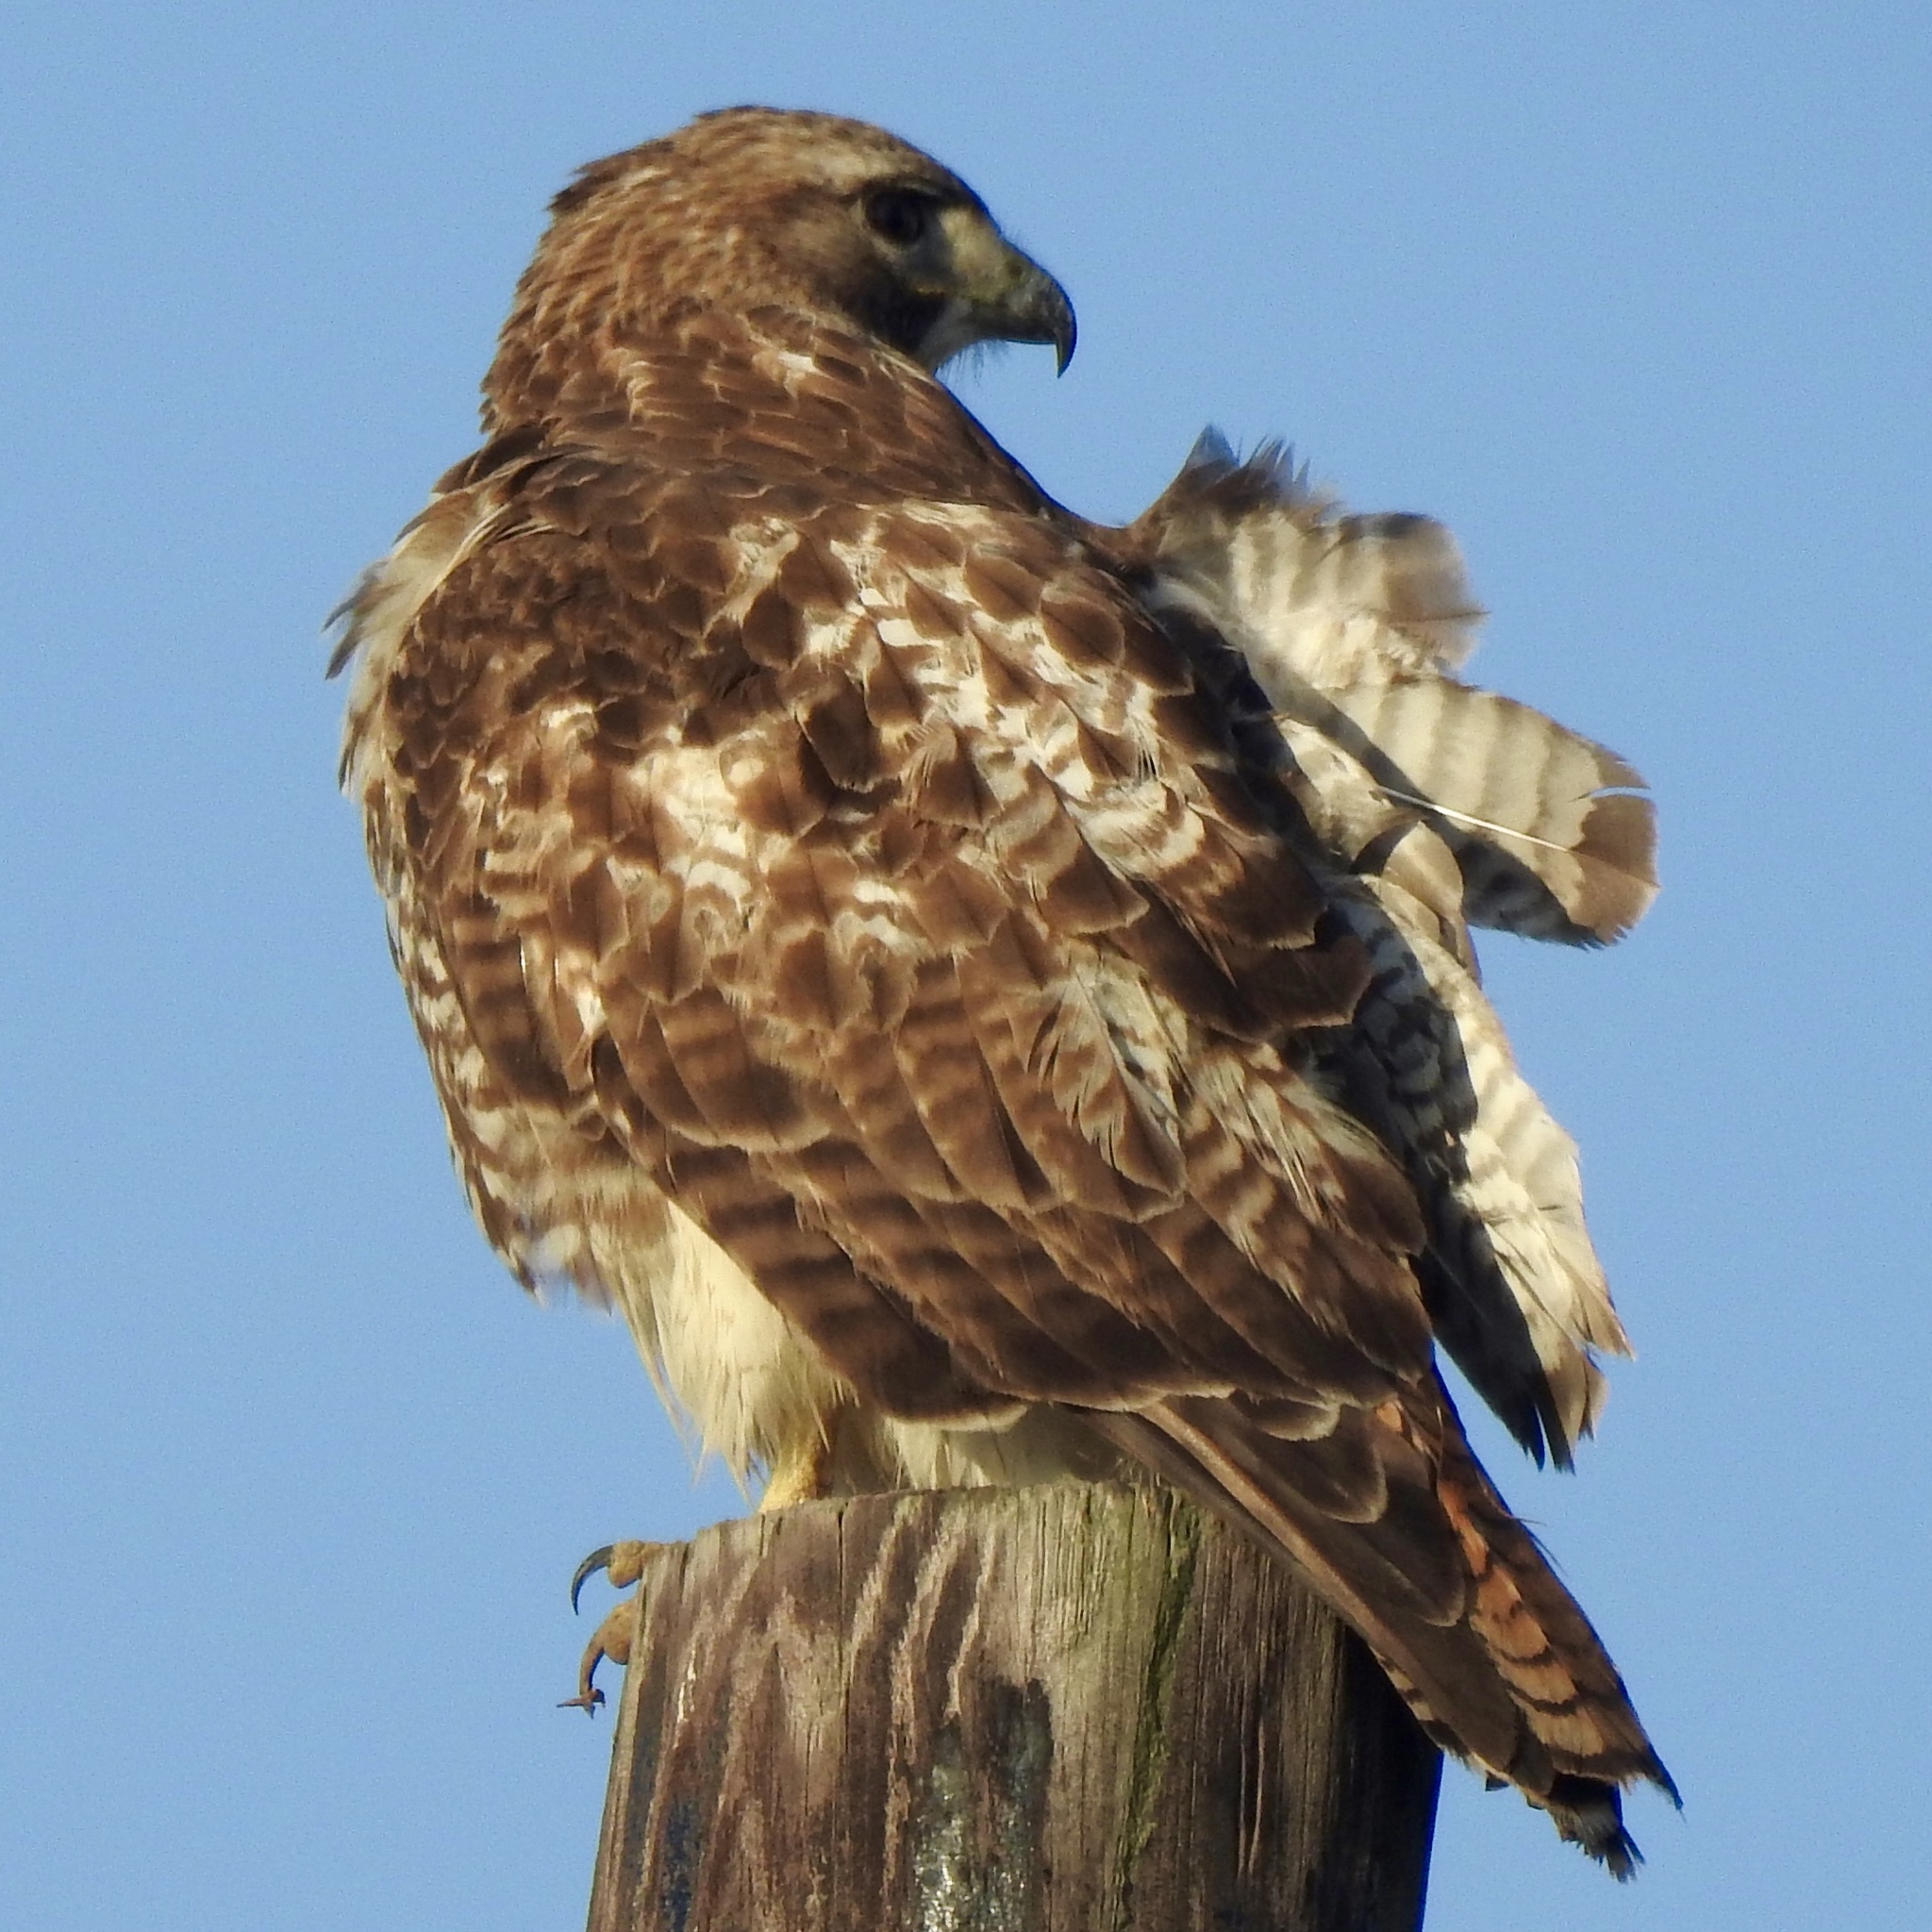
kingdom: Animalia
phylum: Chordata
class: Aves
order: Accipitriformes
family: Accipitridae
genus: Buteo
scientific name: Buteo jamaicensis
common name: Red-tailed hawk
